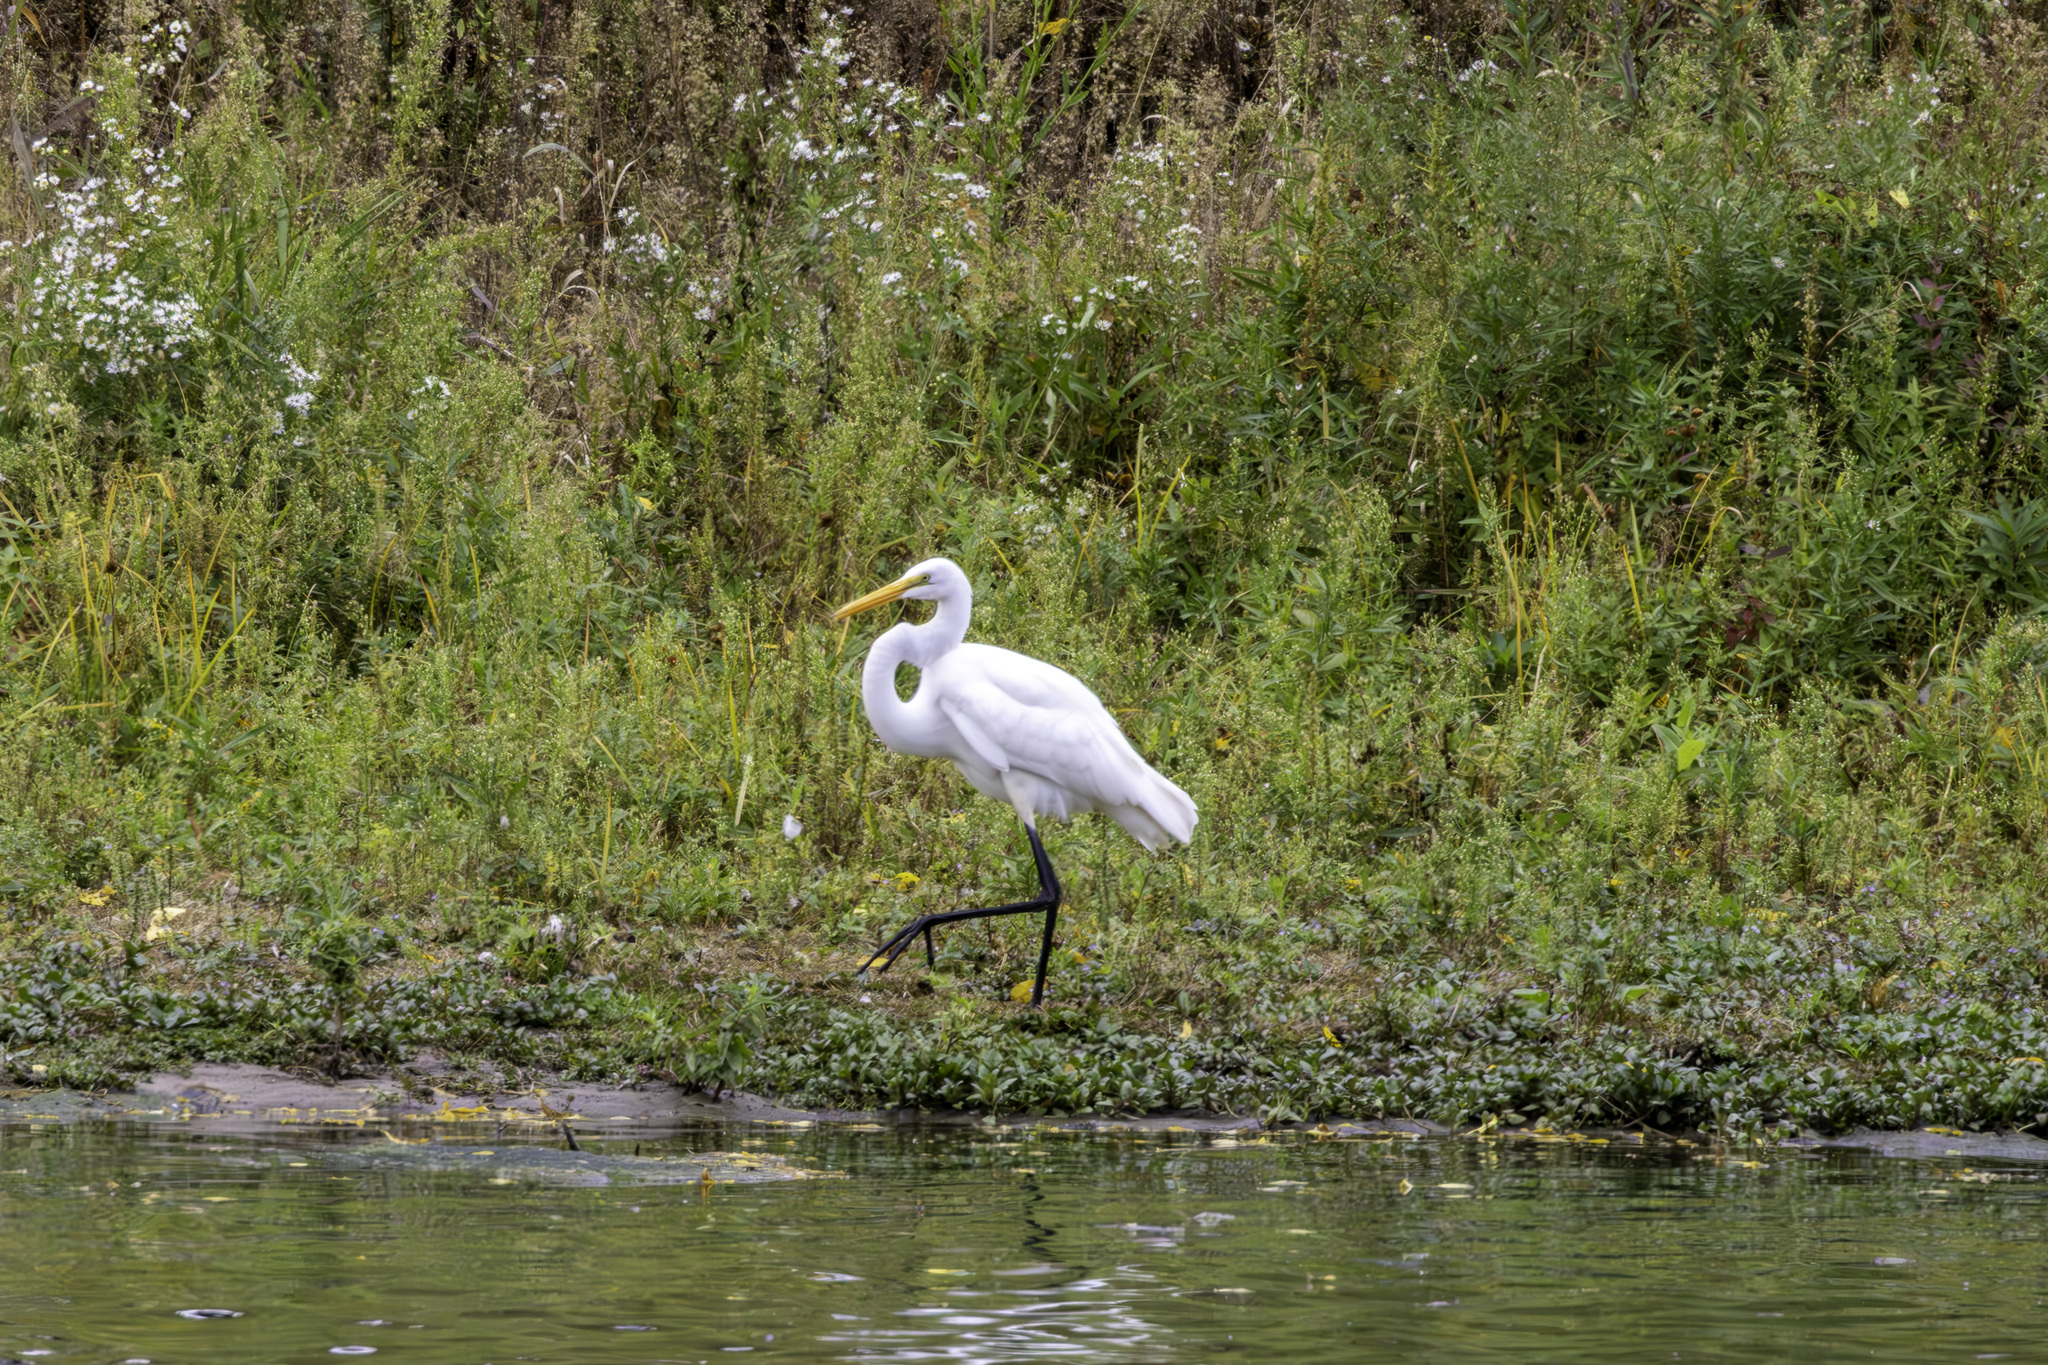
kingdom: Animalia
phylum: Chordata
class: Aves
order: Pelecaniformes
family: Ardeidae
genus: Ardea
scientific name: Ardea alba
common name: Great egret
